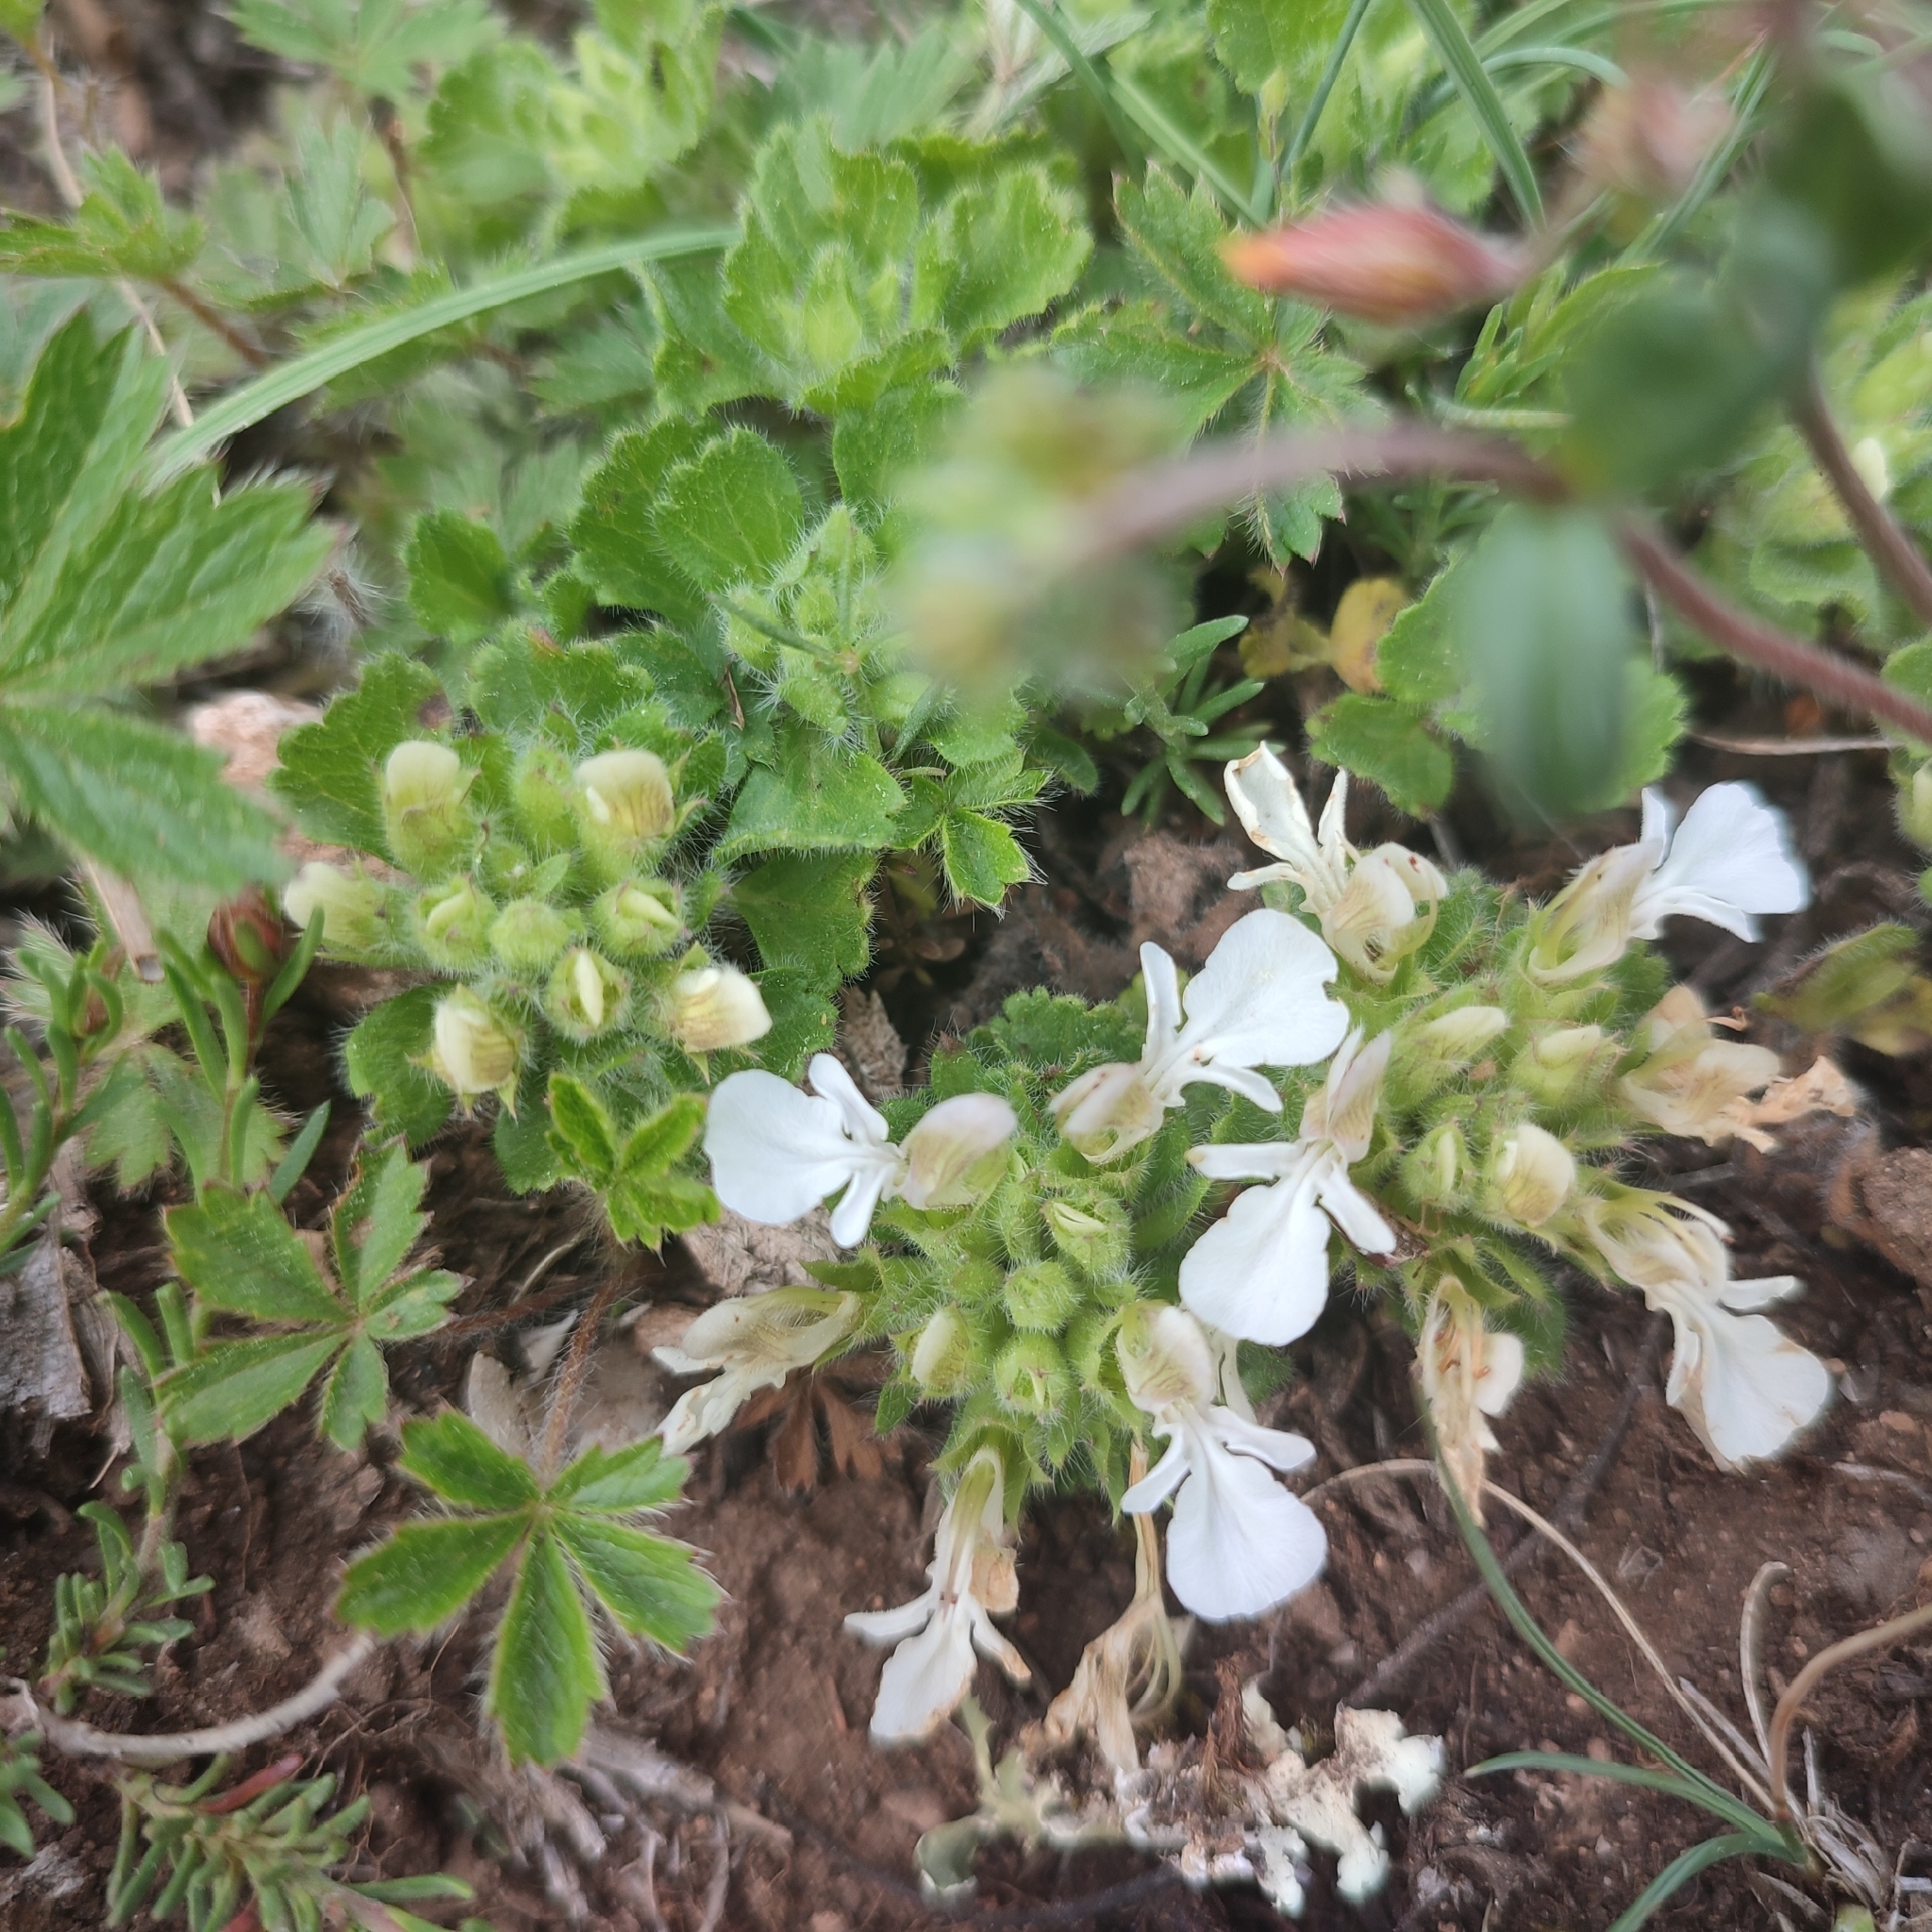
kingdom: Plantae
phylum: Tracheophyta
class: Magnoliopsida
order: Lamiales
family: Lamiaceae
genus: Teucrium
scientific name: Teucrium pyrenaicum
